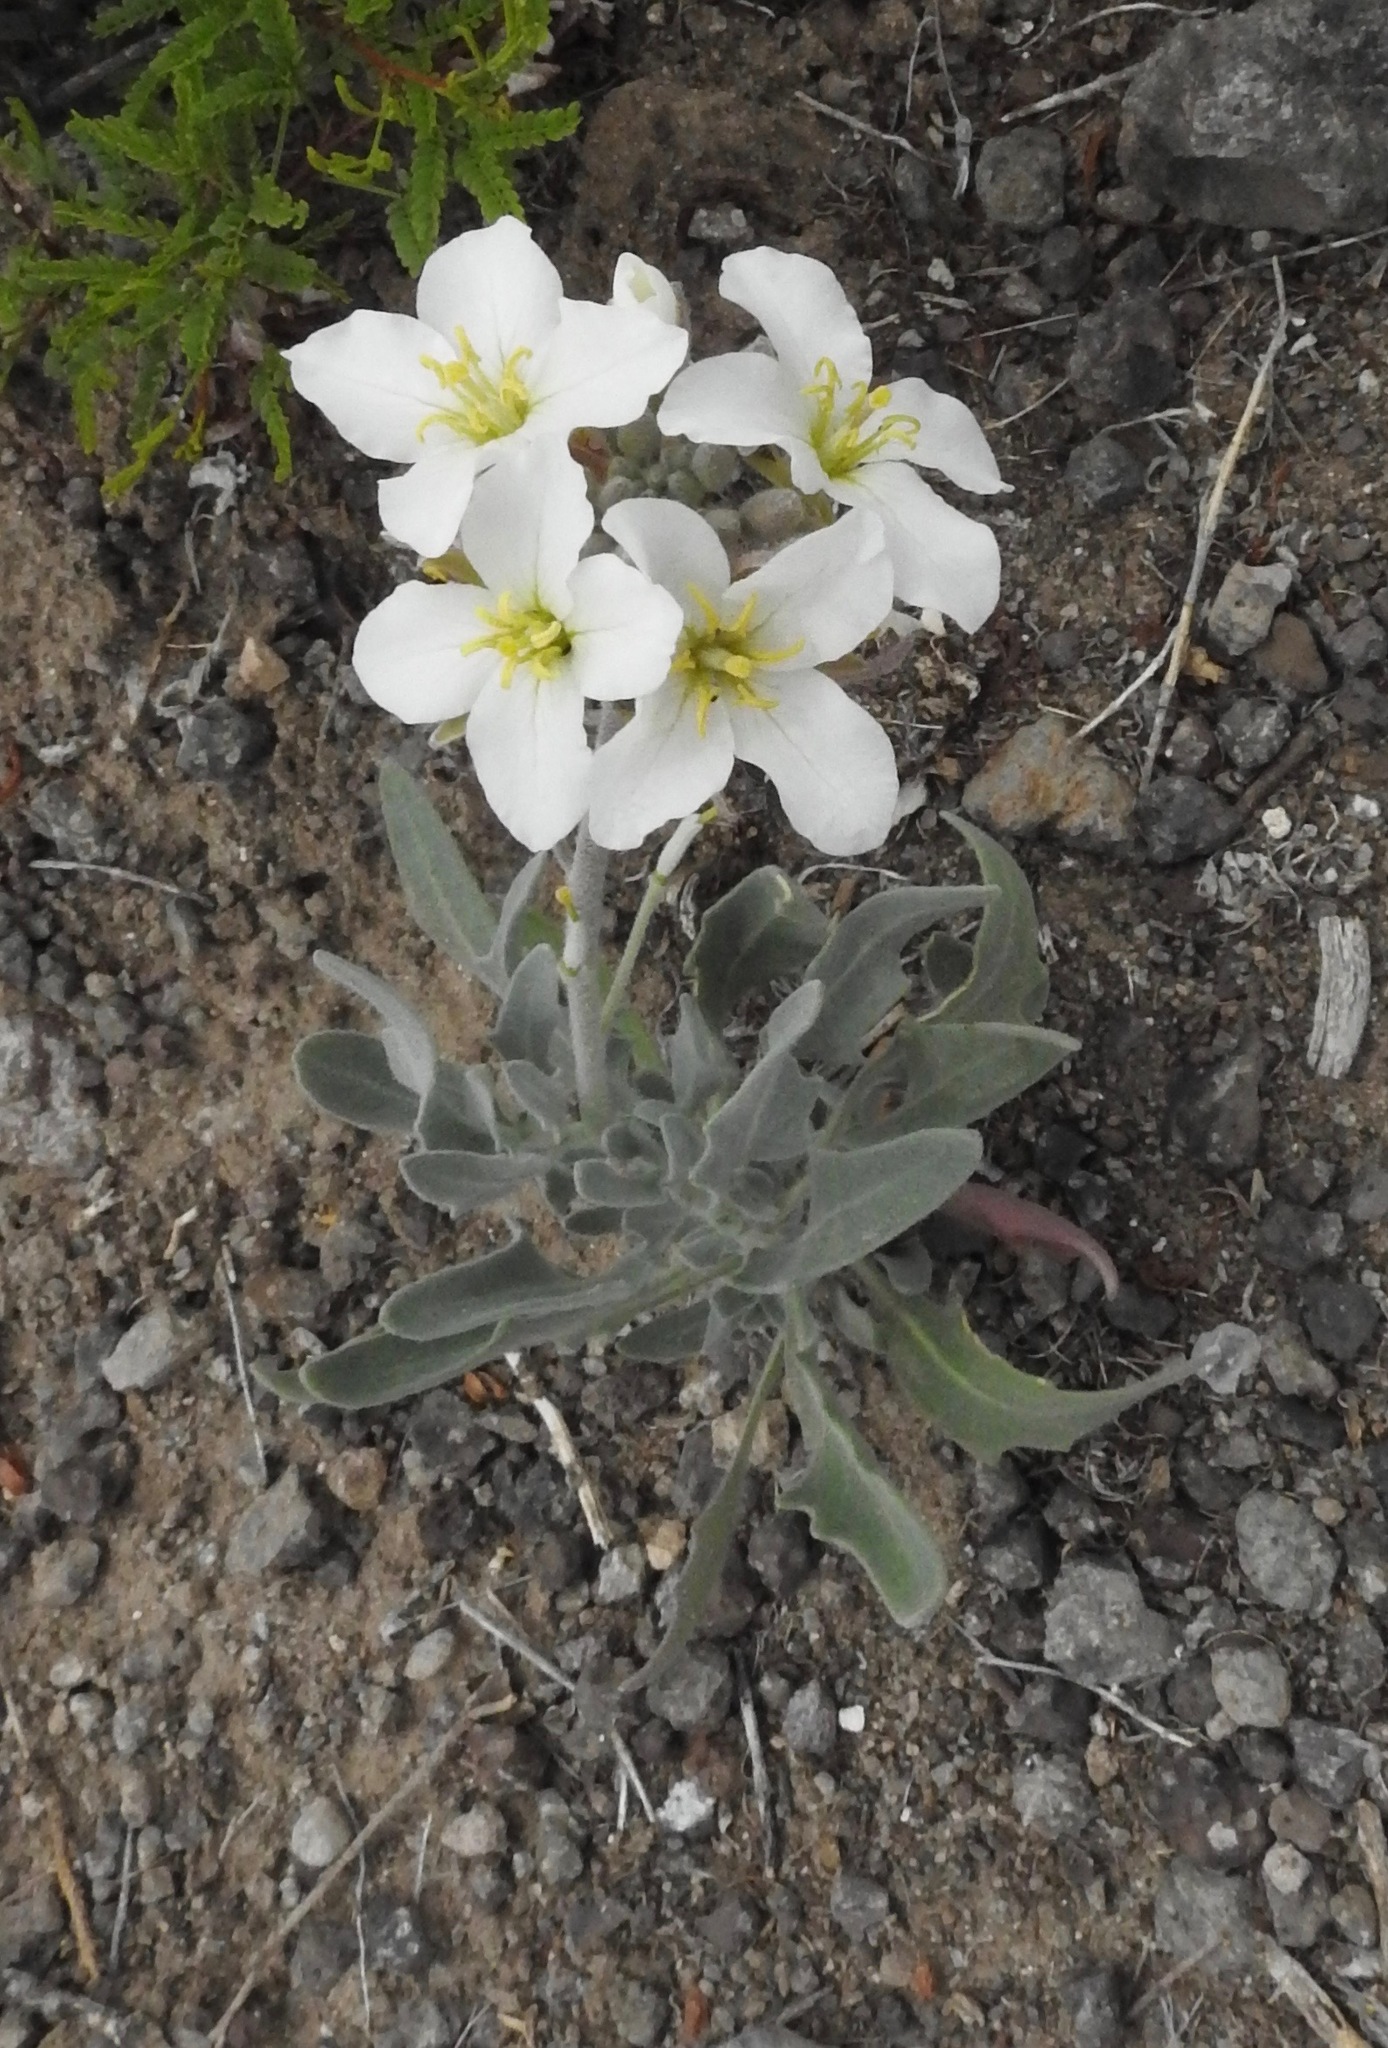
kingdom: Plantae
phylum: Tracheophyta
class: Magnoliopsida
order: Brassicales
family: Brassicaceae
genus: Nerisyrenia
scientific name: Nerisyrenia camporum
